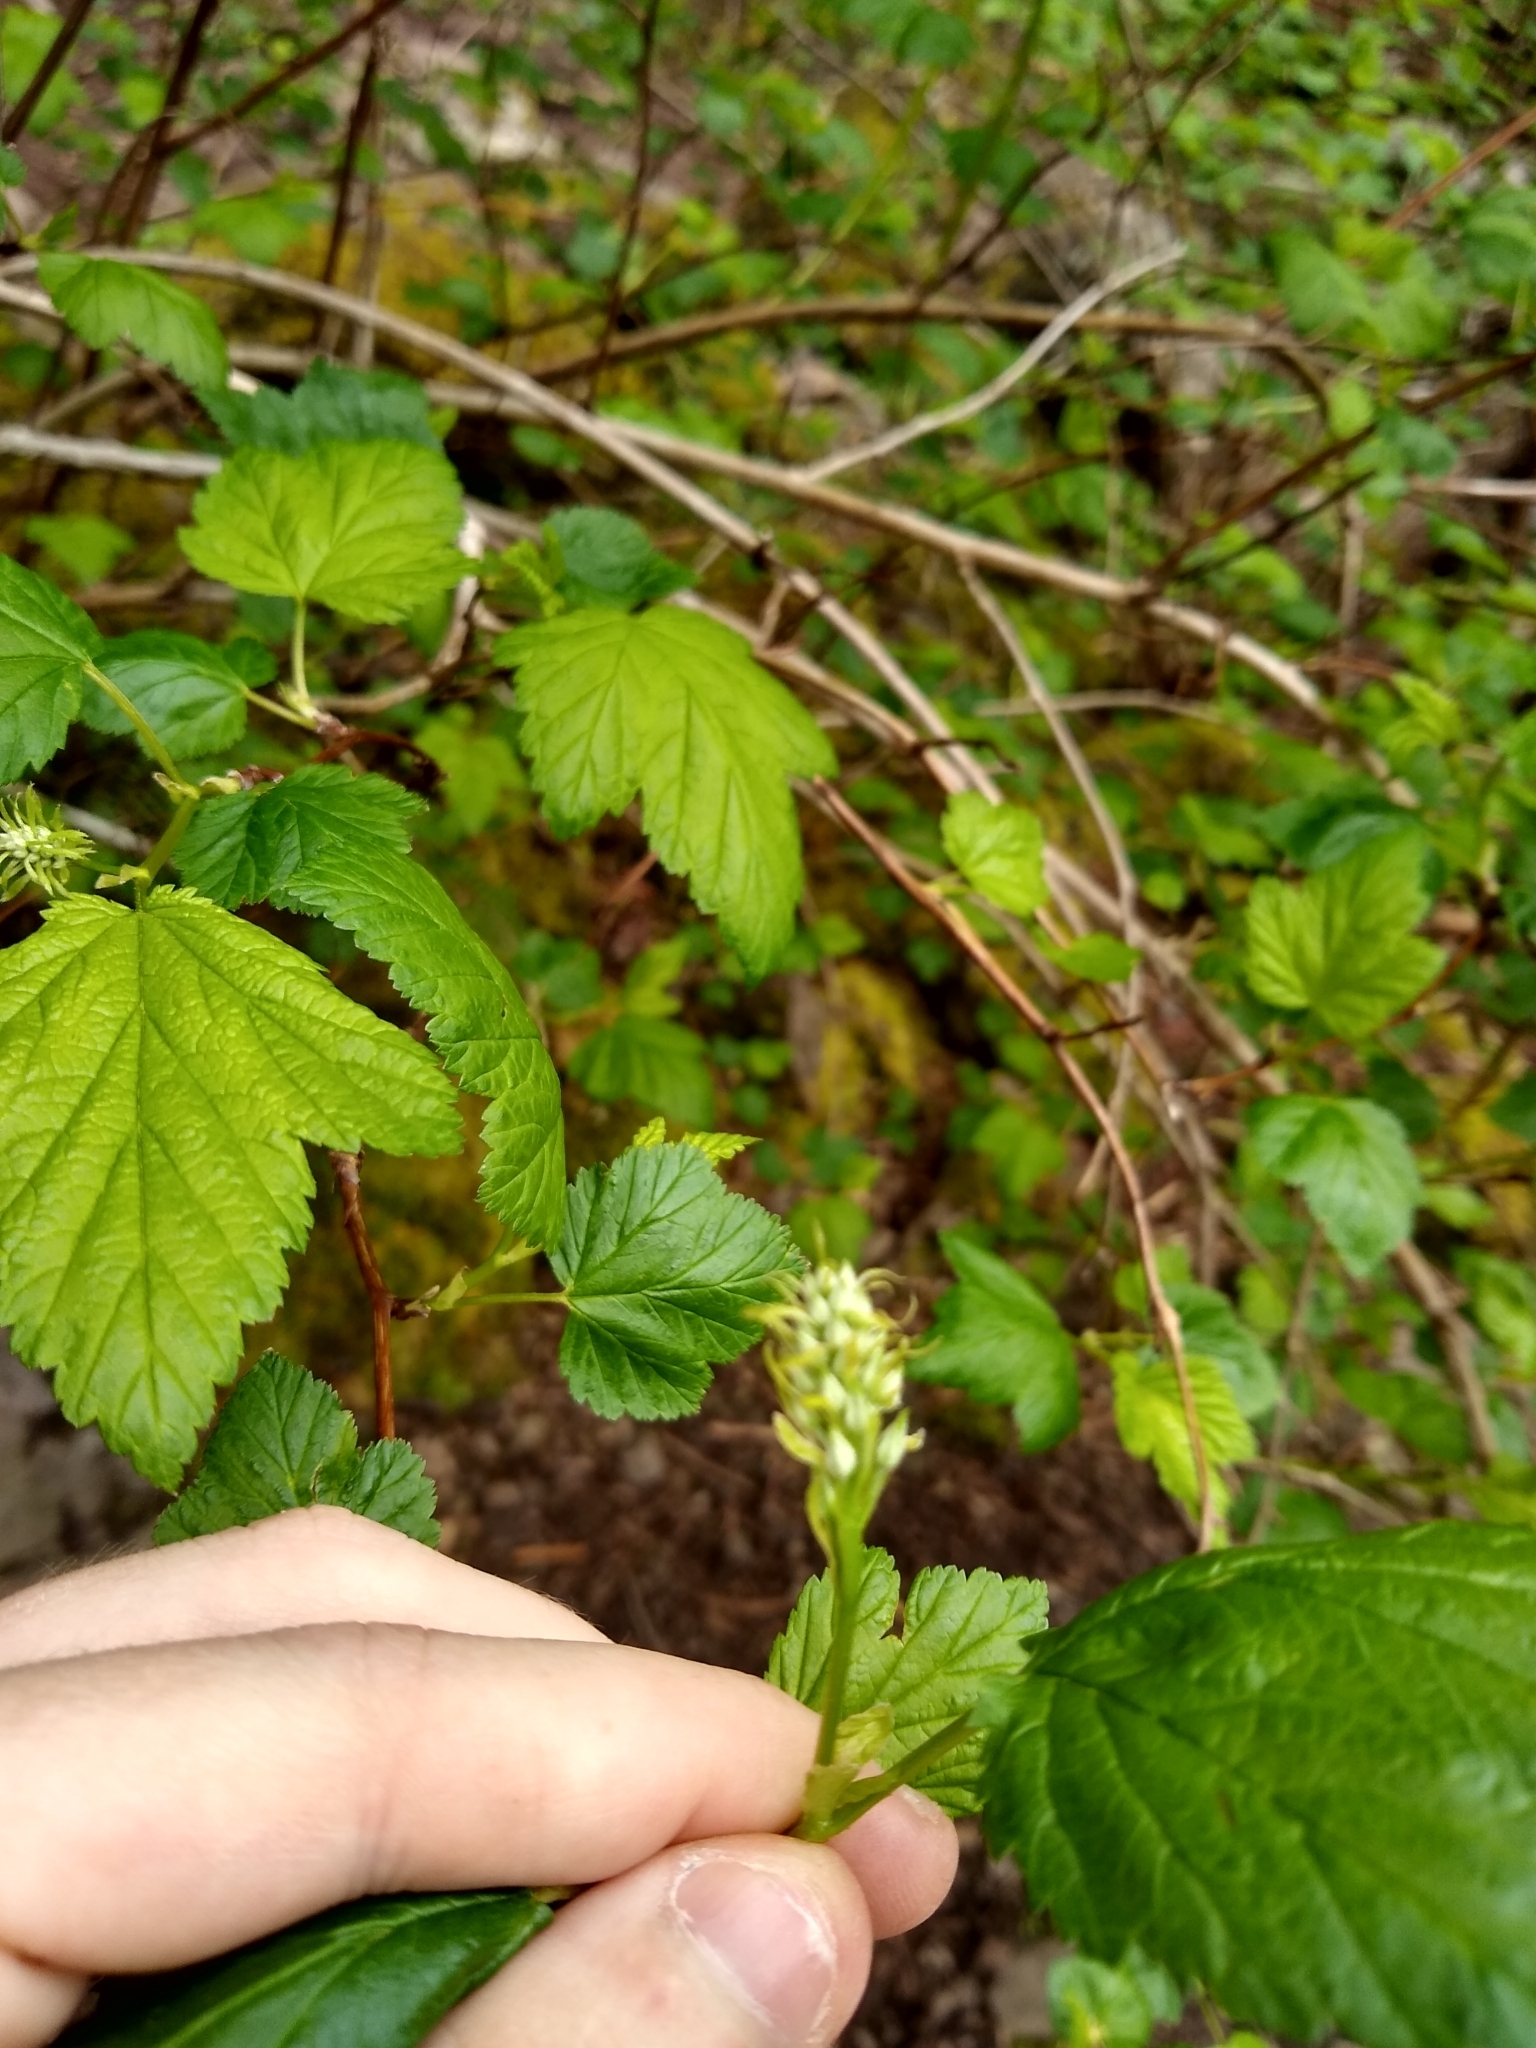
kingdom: Plantae
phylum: Tracheophyta
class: Magnoliopsida
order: Rosales
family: Rosaceae
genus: Physocarpus
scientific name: Physocarpus capitatus
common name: Pacific ninebark
